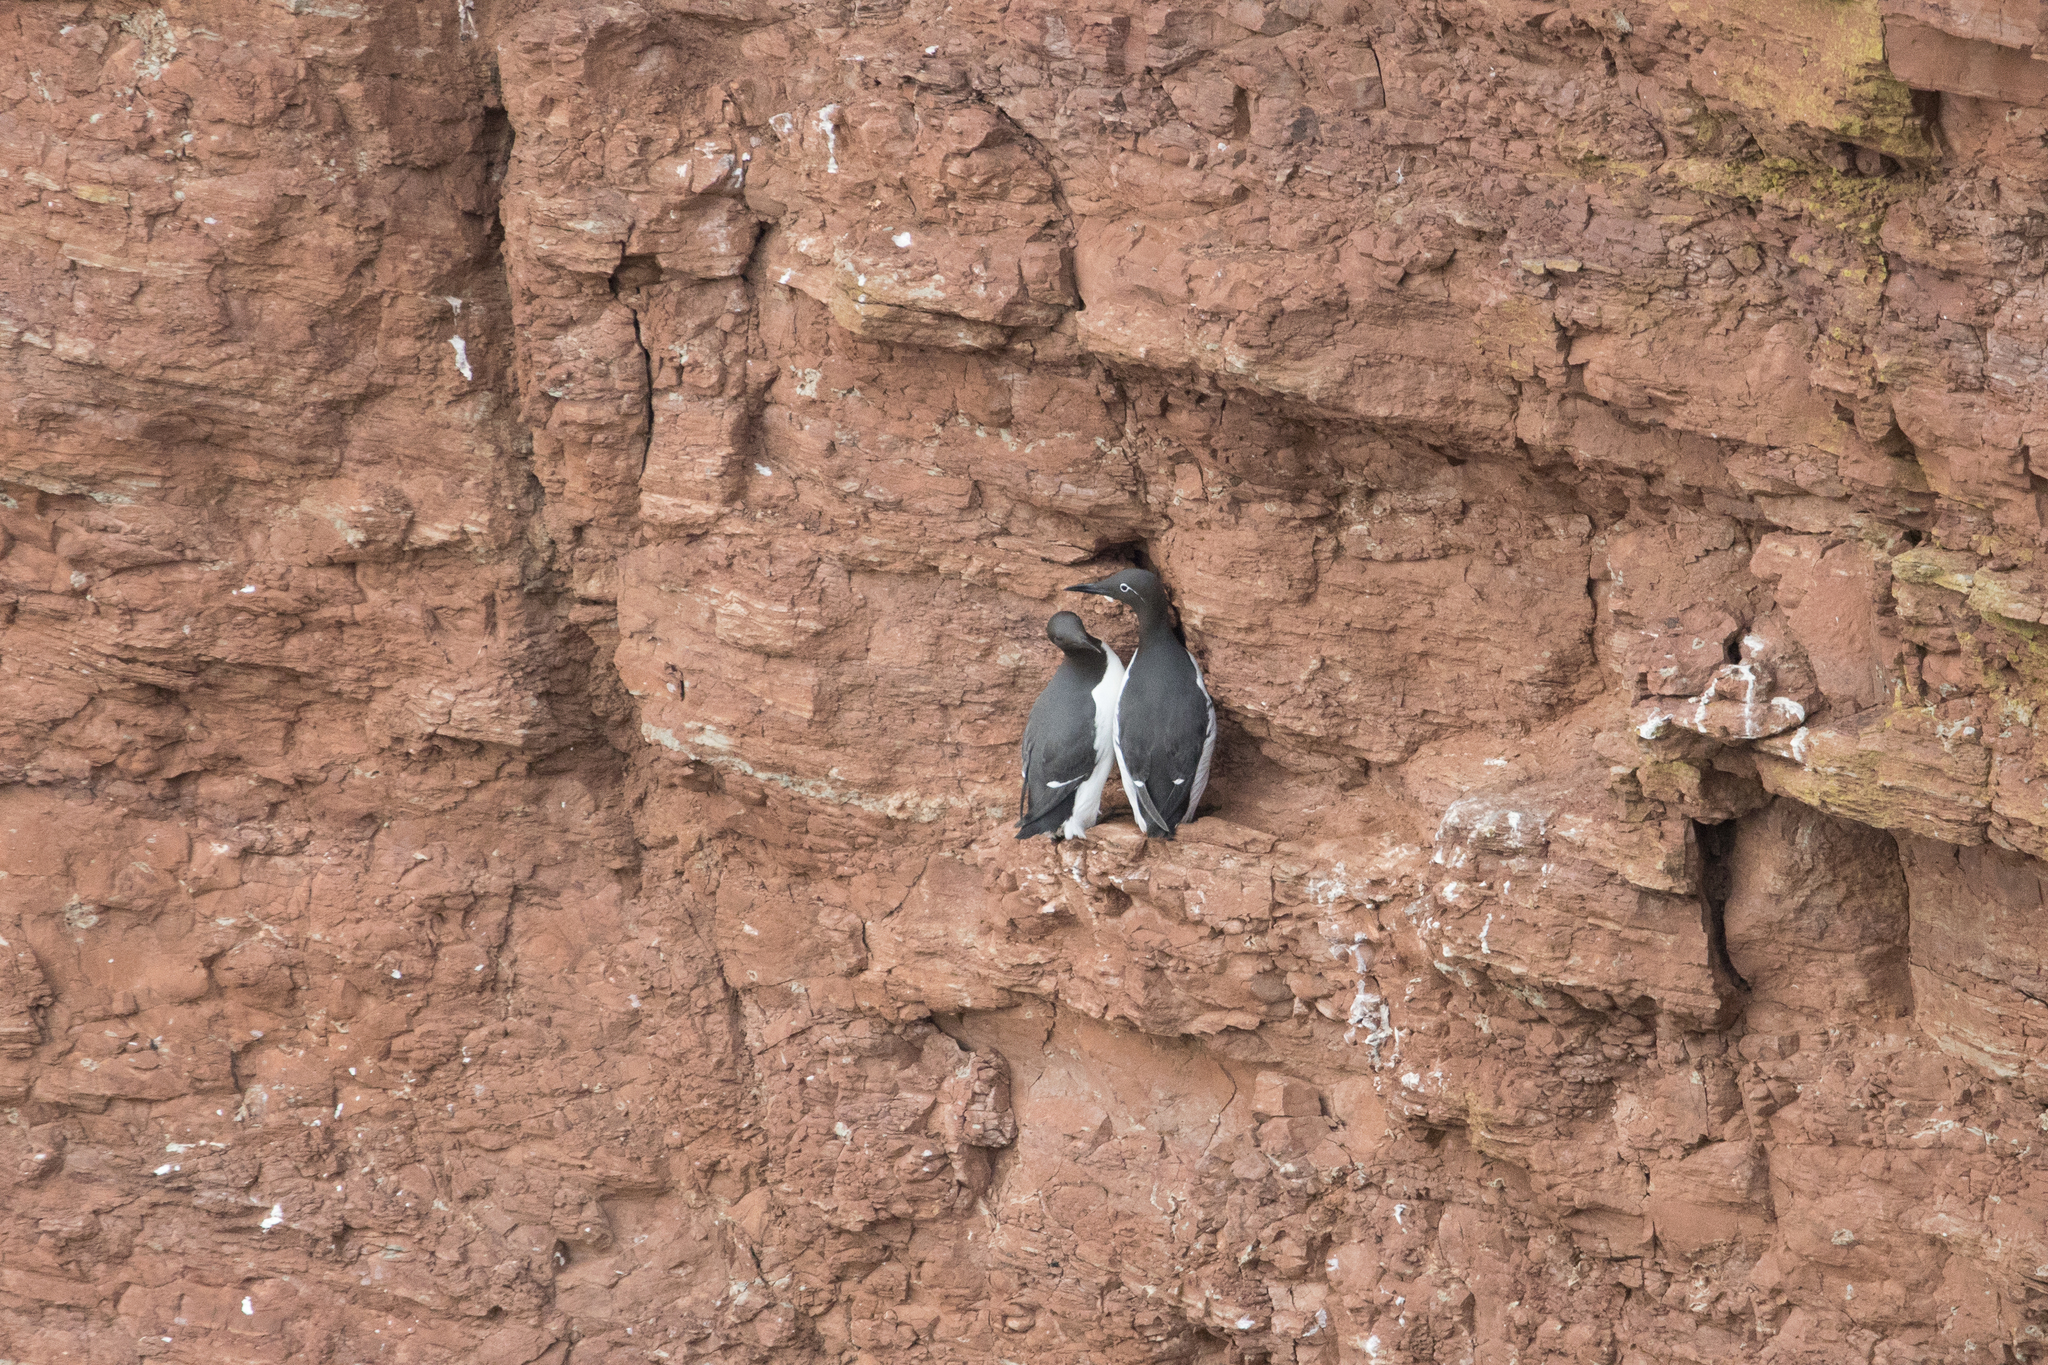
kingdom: Animalia
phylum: Chordata
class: Aves
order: Charadriiformes
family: Alcidae
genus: Uria
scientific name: Uria aalge
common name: Common murre
